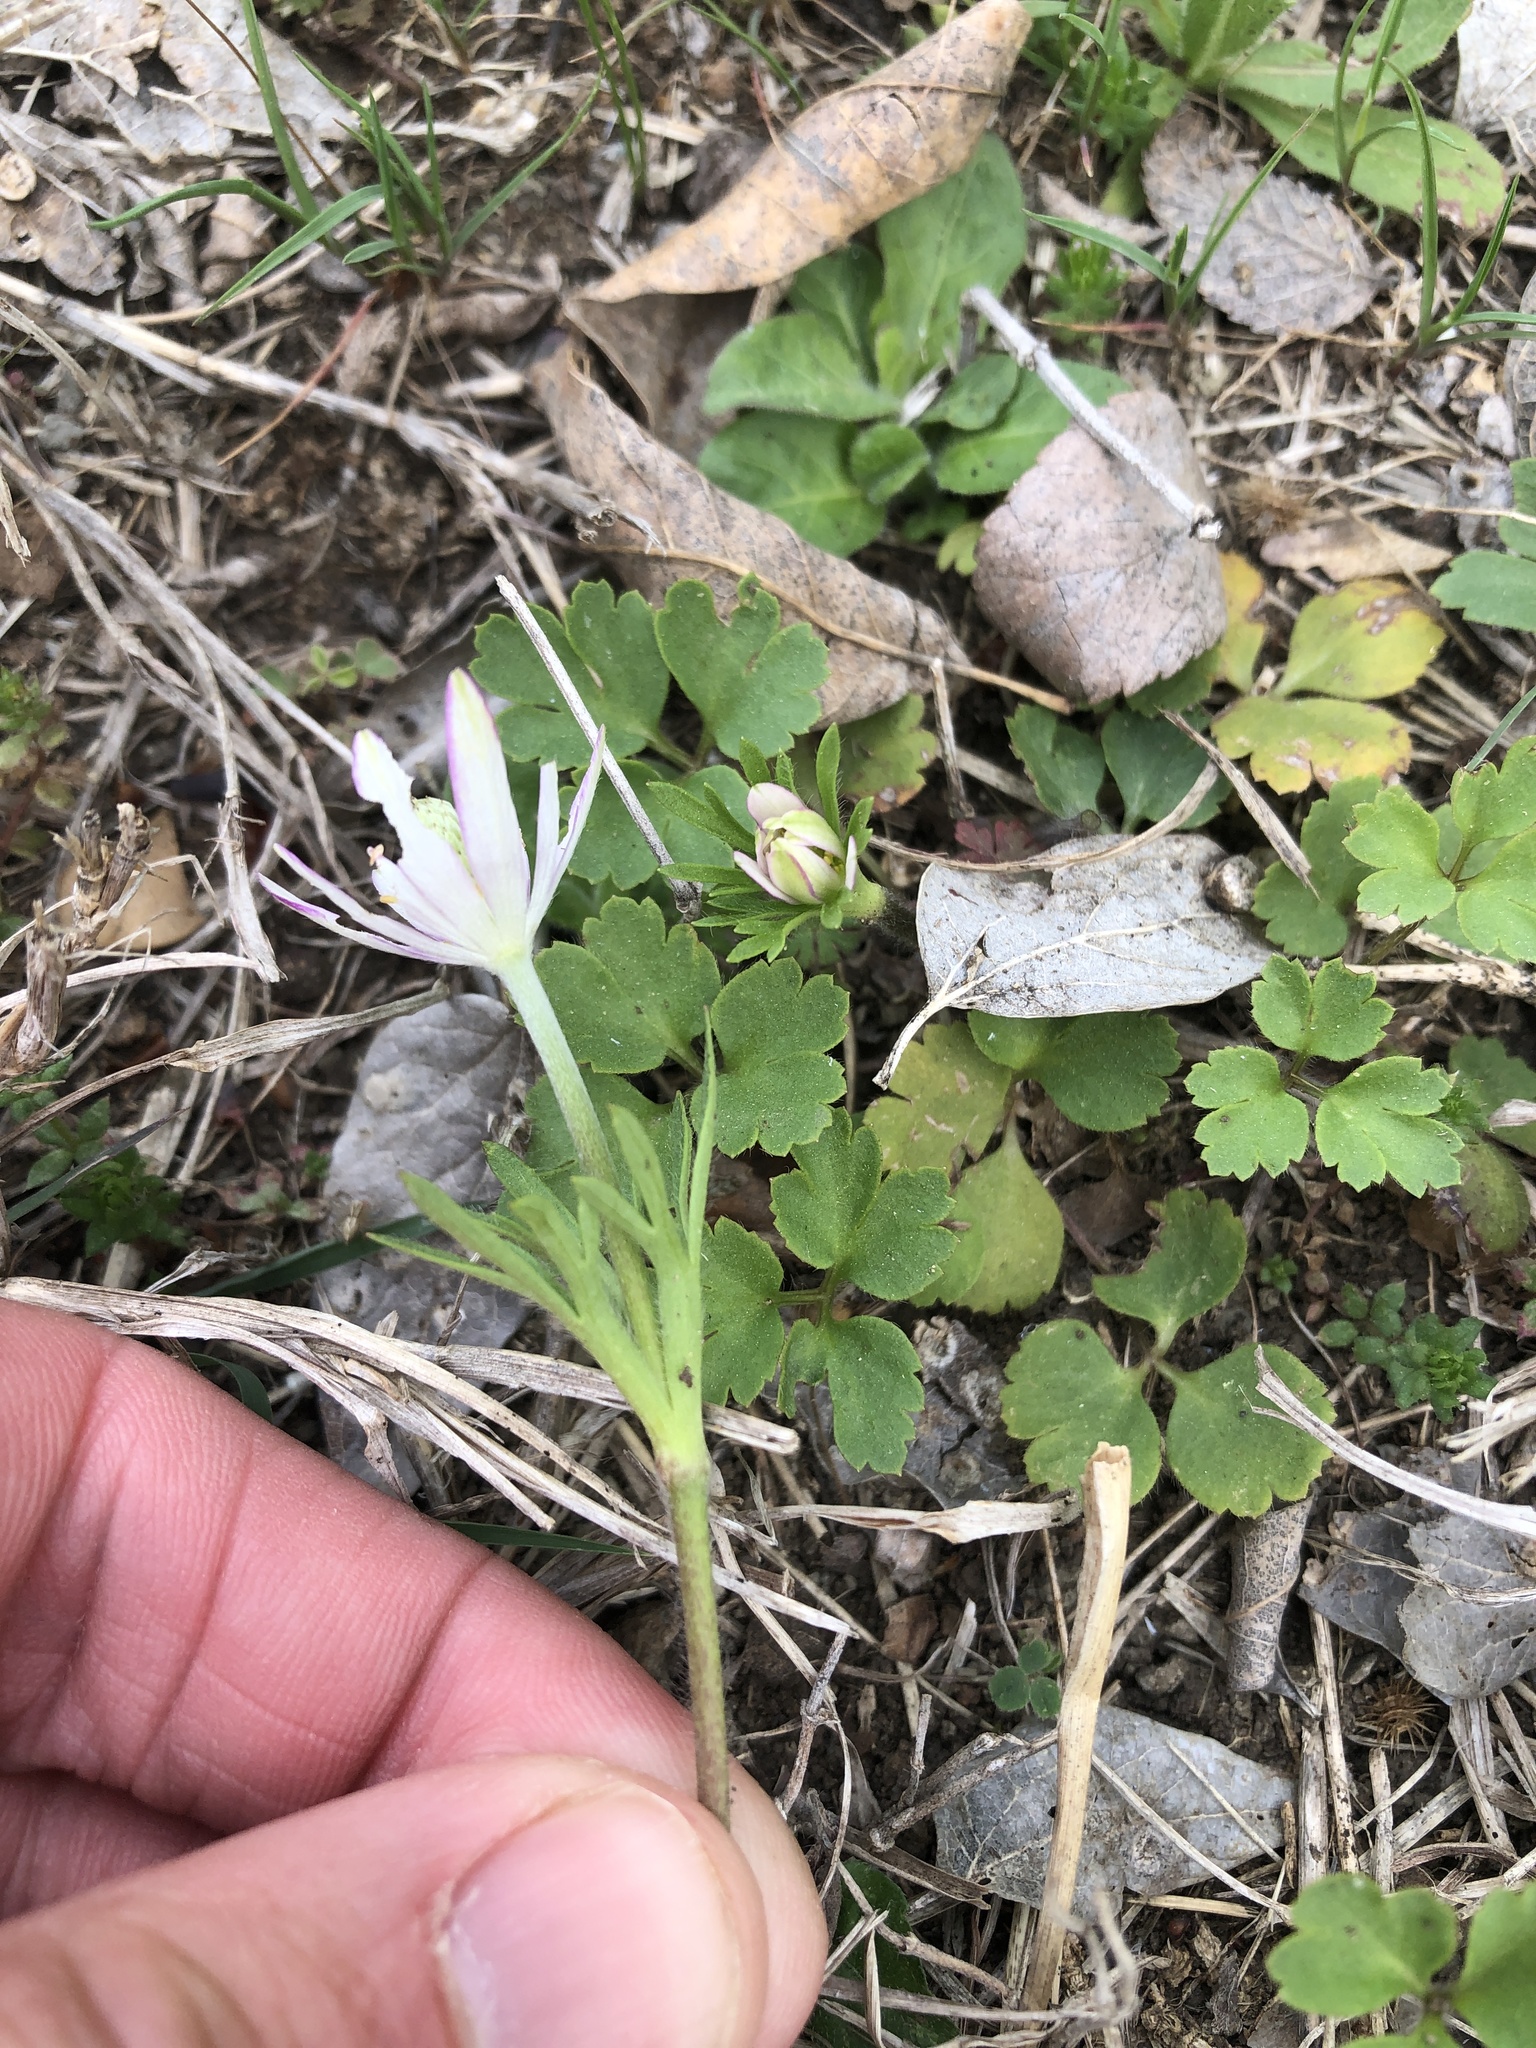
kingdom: Plantae
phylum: Tracheophyta
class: Magnoliopsida
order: Ranunculales
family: Ranunculaceae
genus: Anemone
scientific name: Anemone berlandieri
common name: Ten-petal anemone
